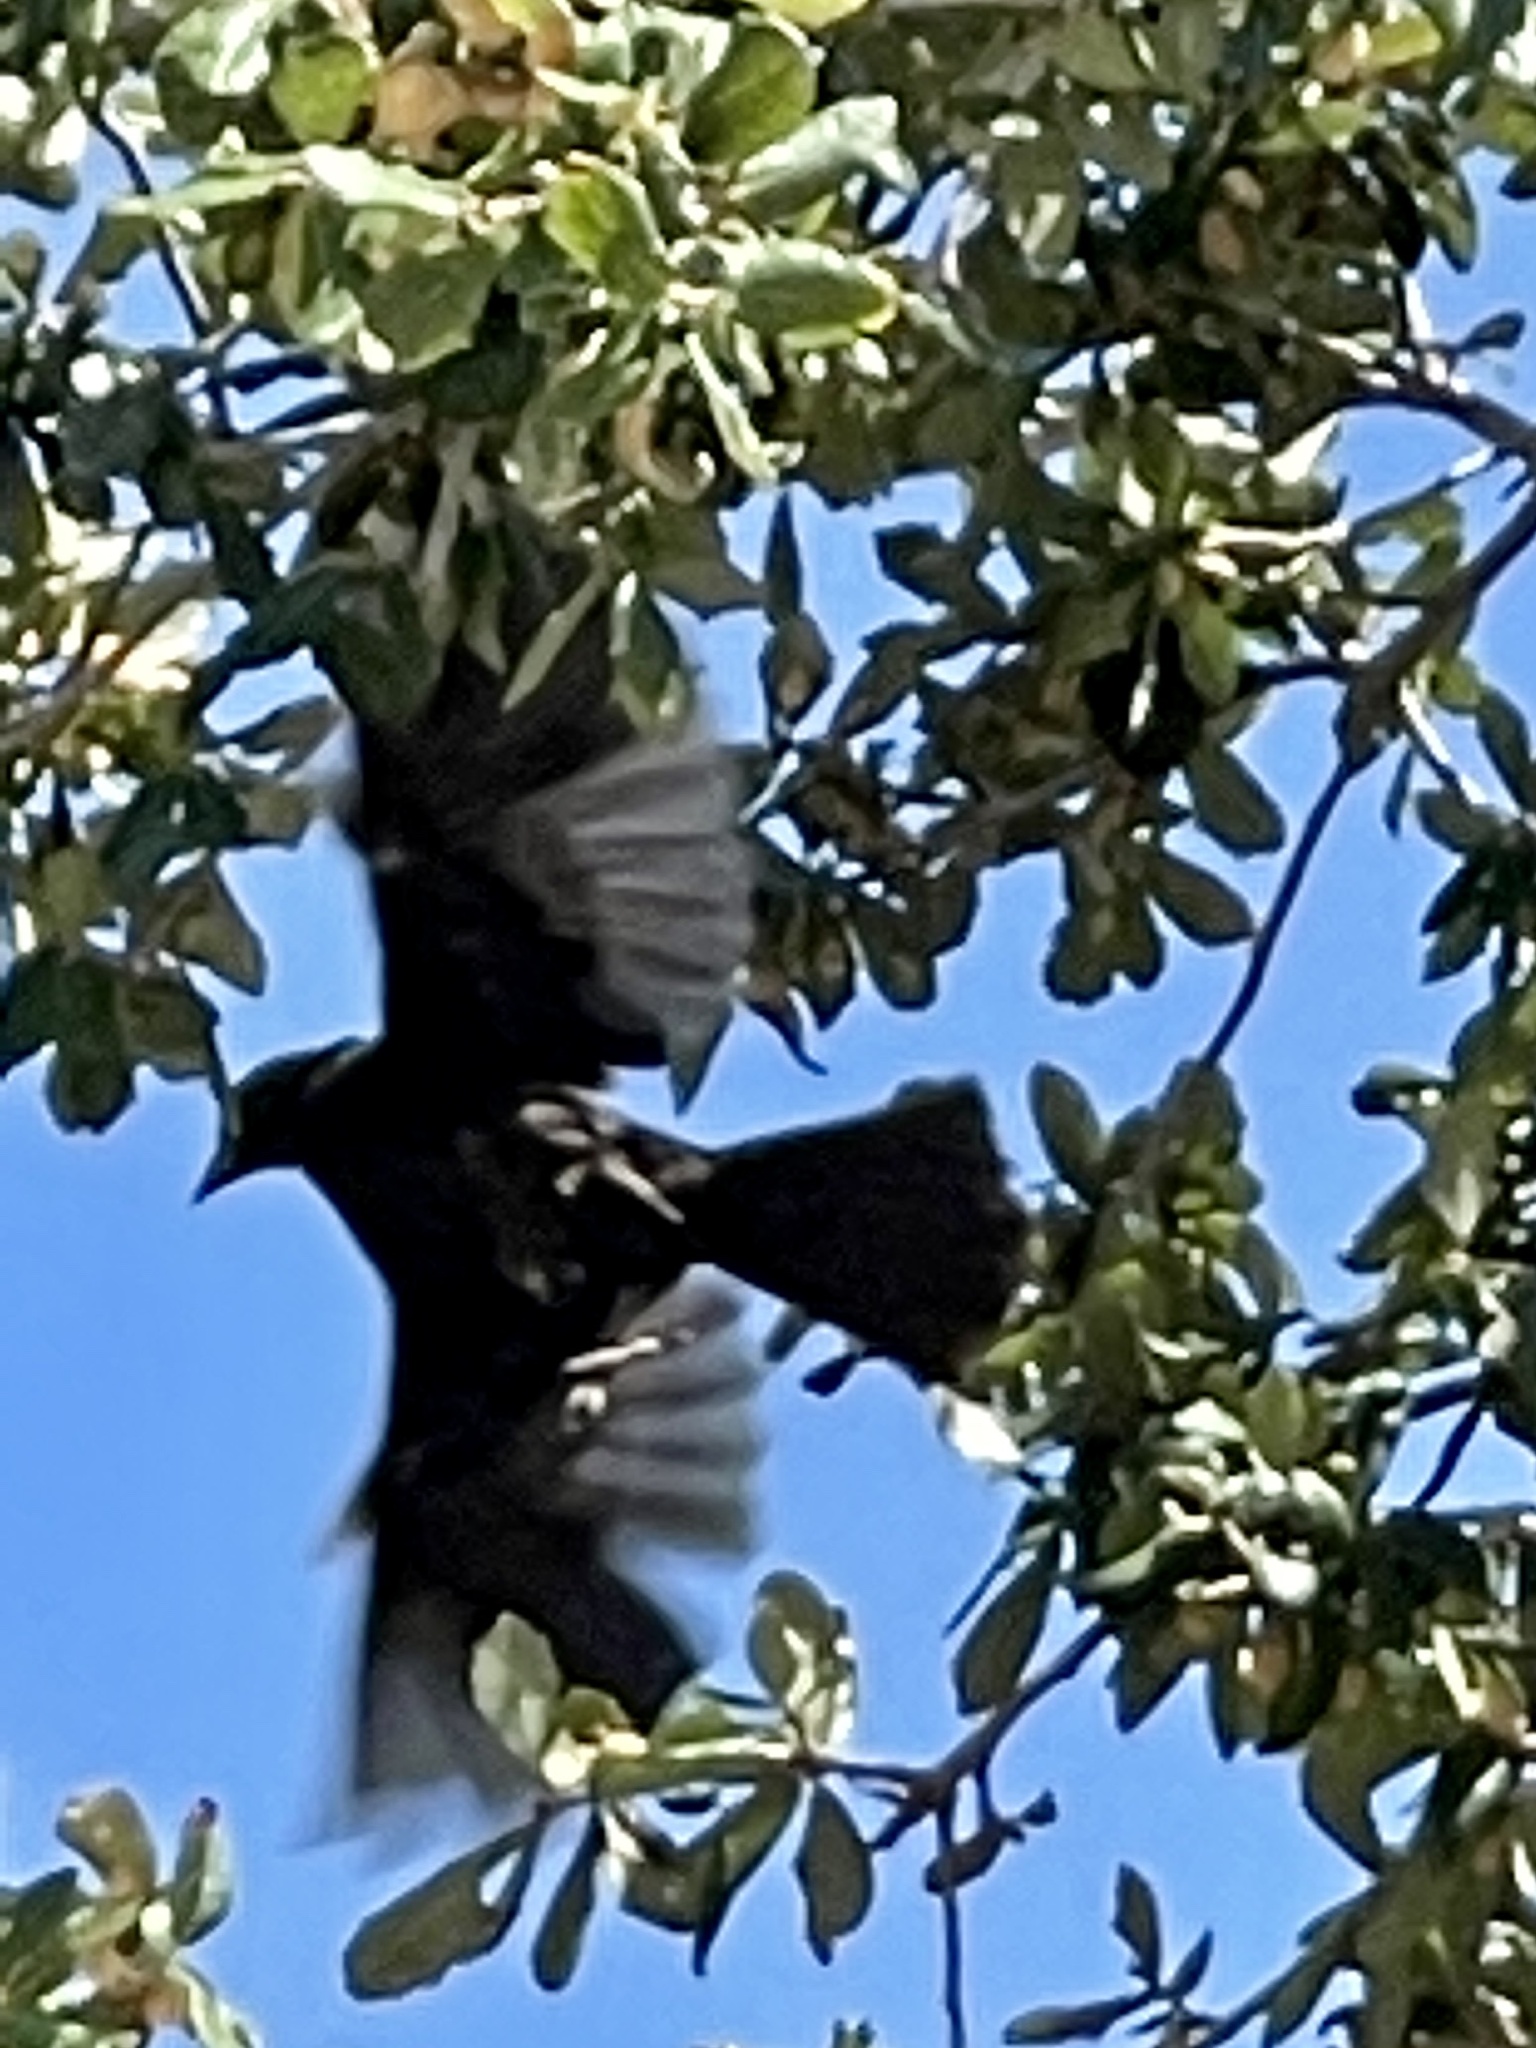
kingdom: Animalia
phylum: Chordata
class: Aves
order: Passeriformes
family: Icteridae
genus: Molothrus
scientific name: Molothrus aeneus
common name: Bronzed cowbird
